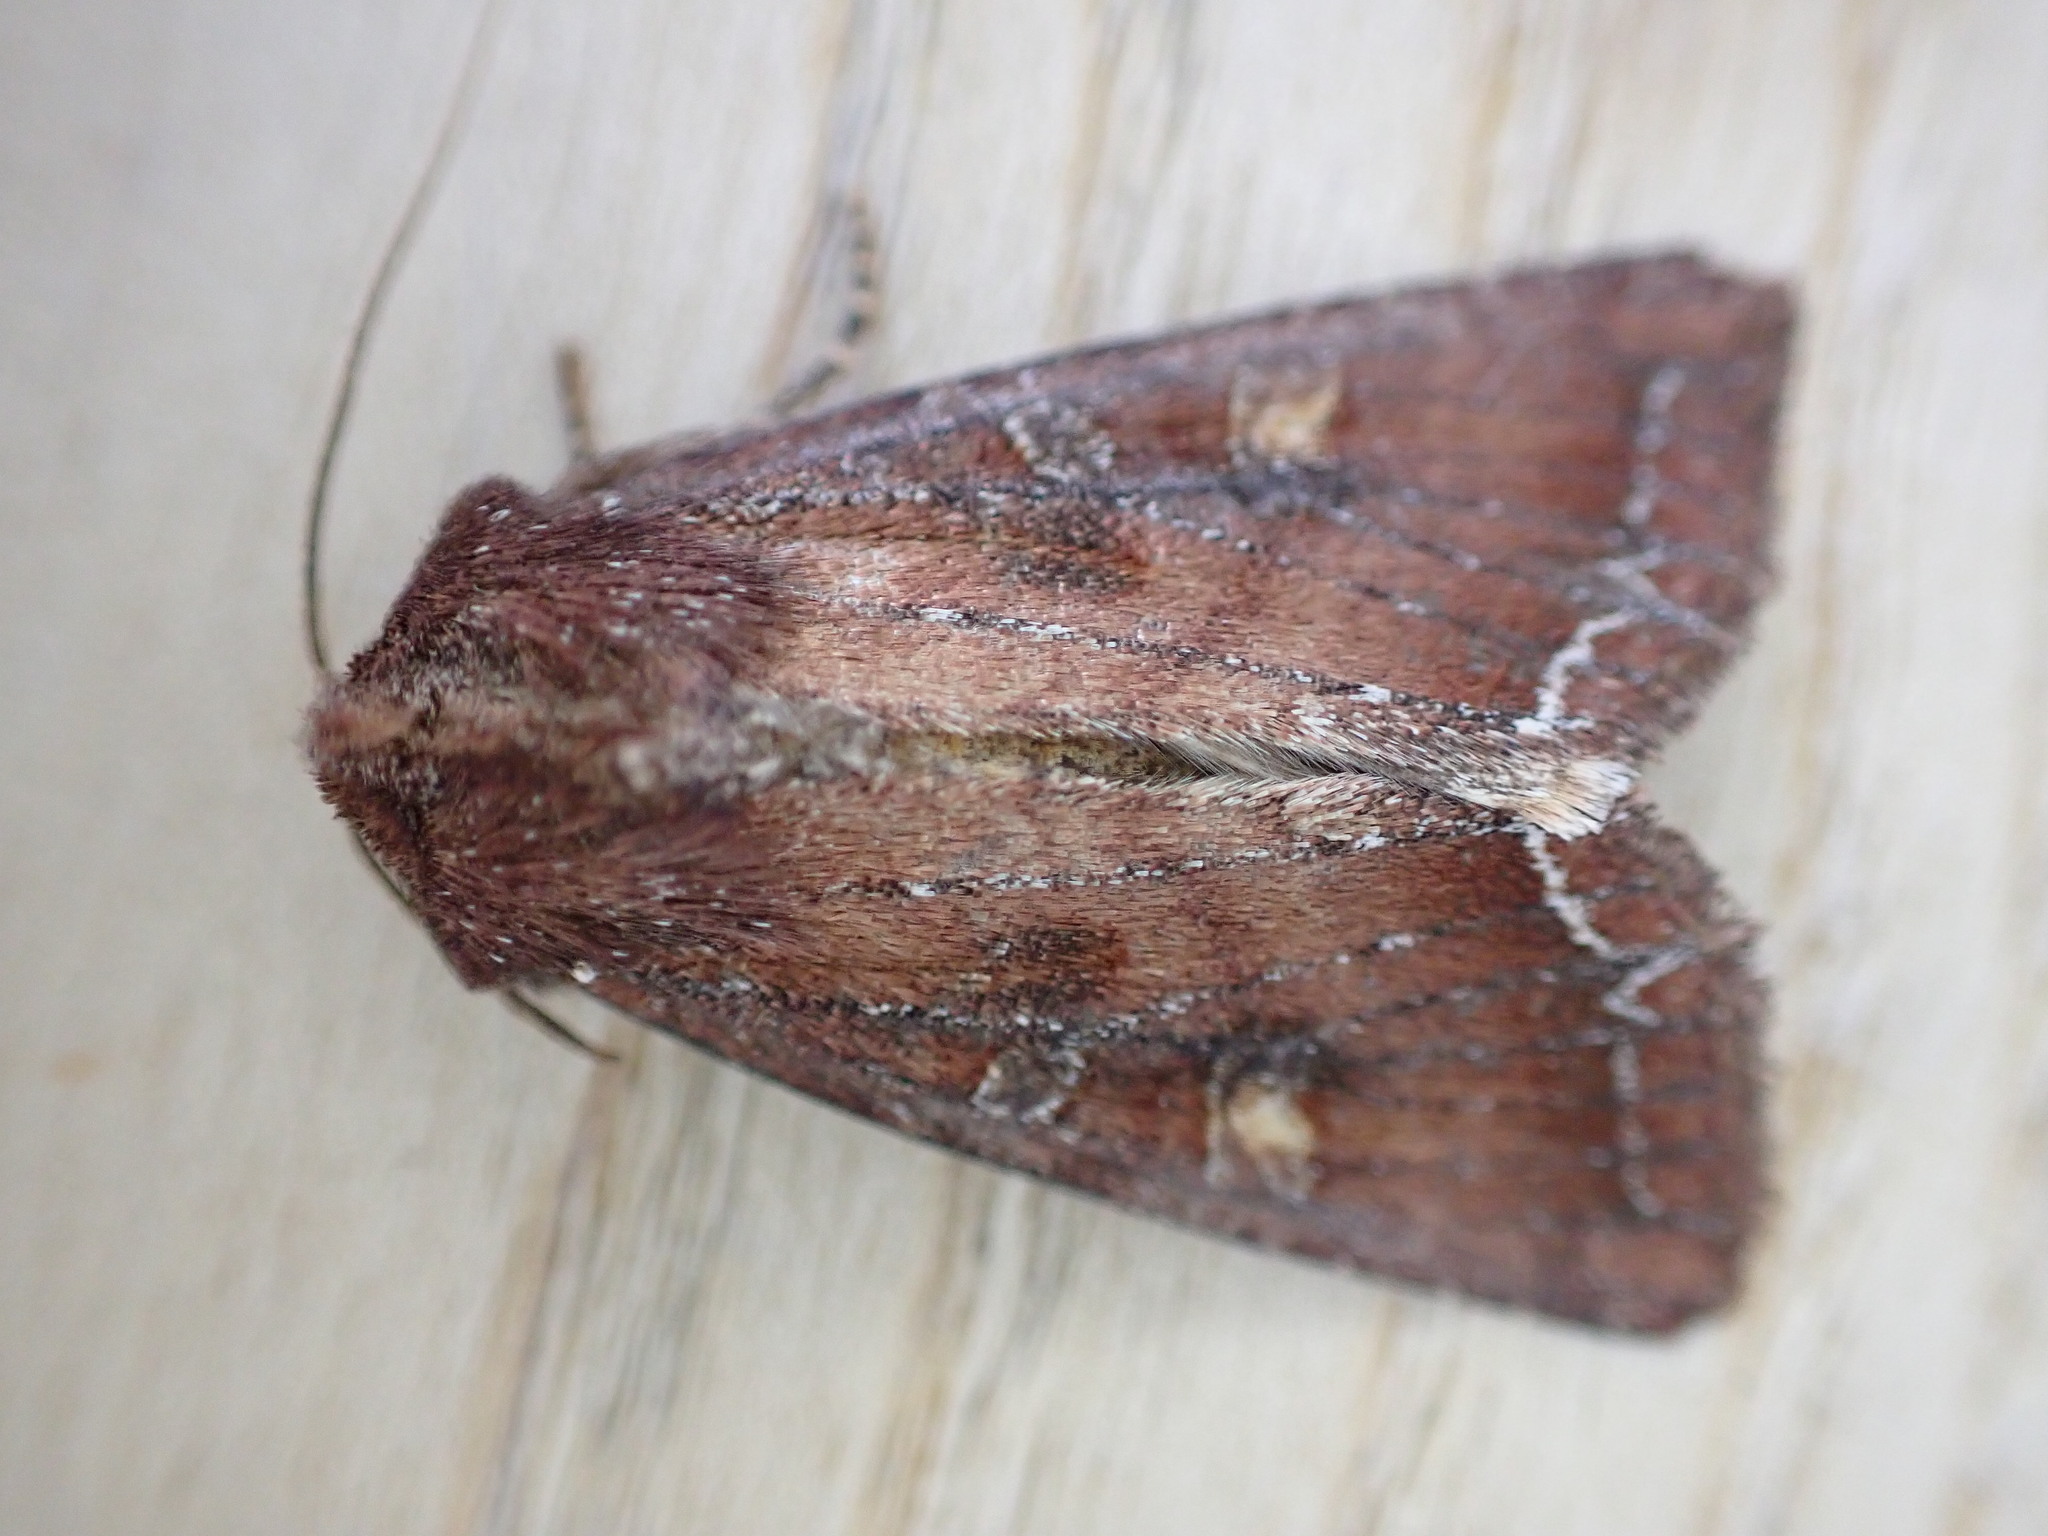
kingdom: Animalia
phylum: Arthropoda
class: Insecta
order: Lepidoptera
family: Noctuidae
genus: Lacanobia
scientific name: Lacanobia oleracea
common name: Bright-line brown-eye
